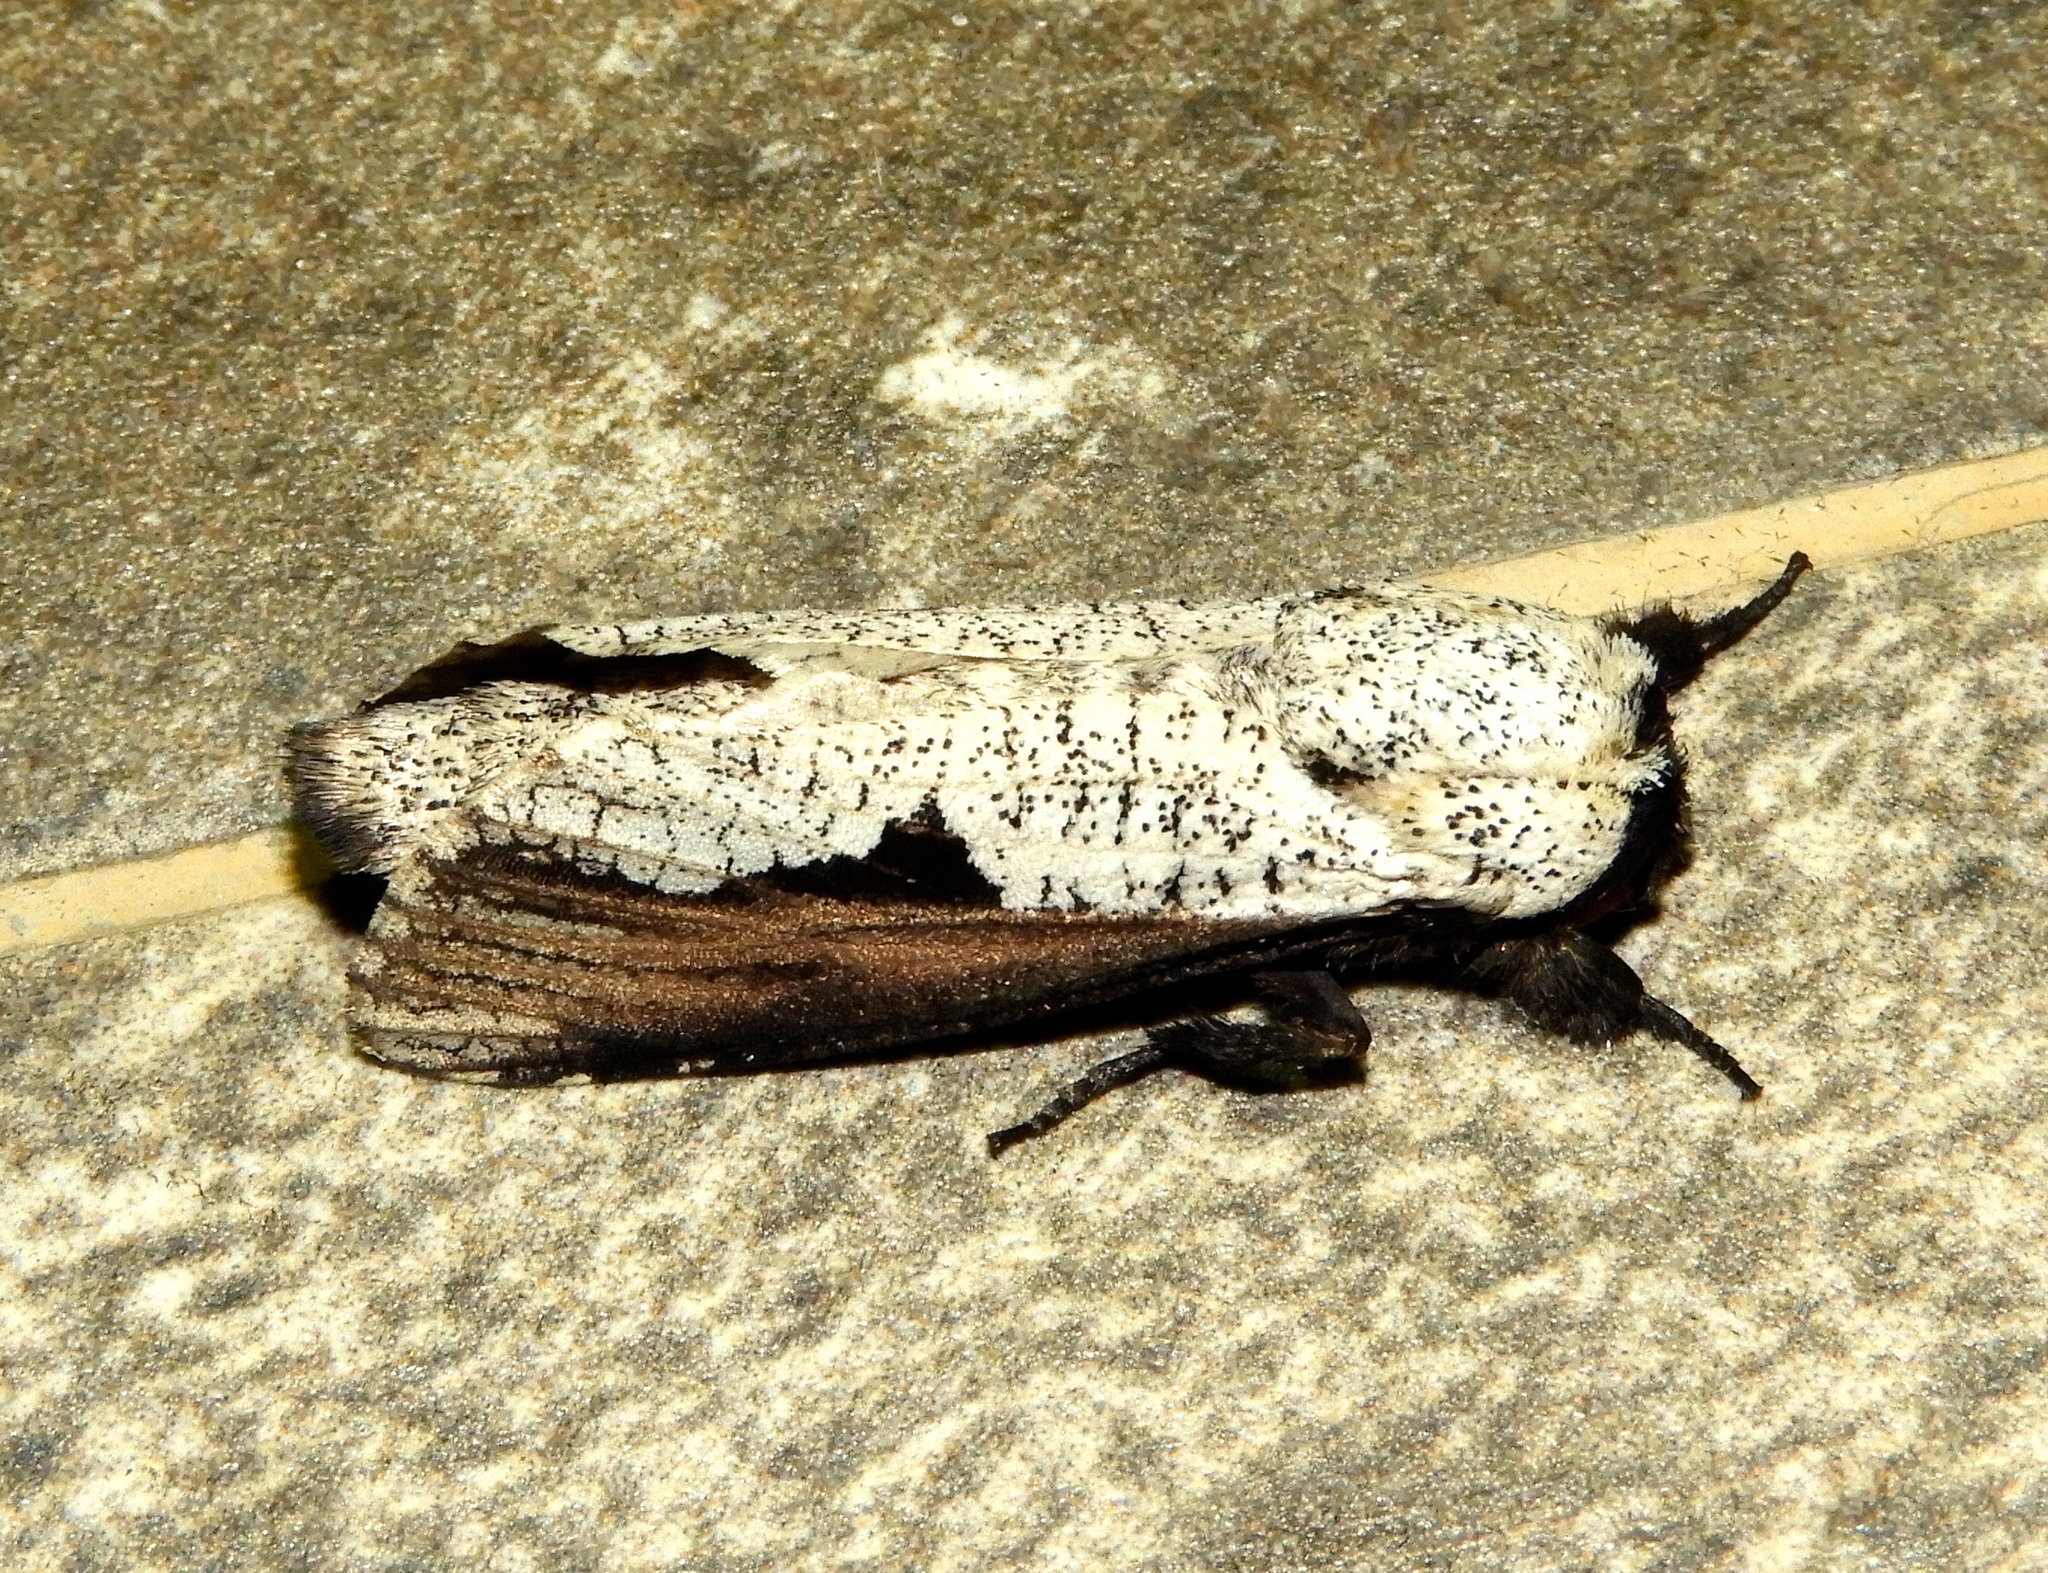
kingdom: Animalia
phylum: Arthropoda
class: Insecta
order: Lepidoptera
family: Cossidae
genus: Brypoctia
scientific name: Brypoctia
